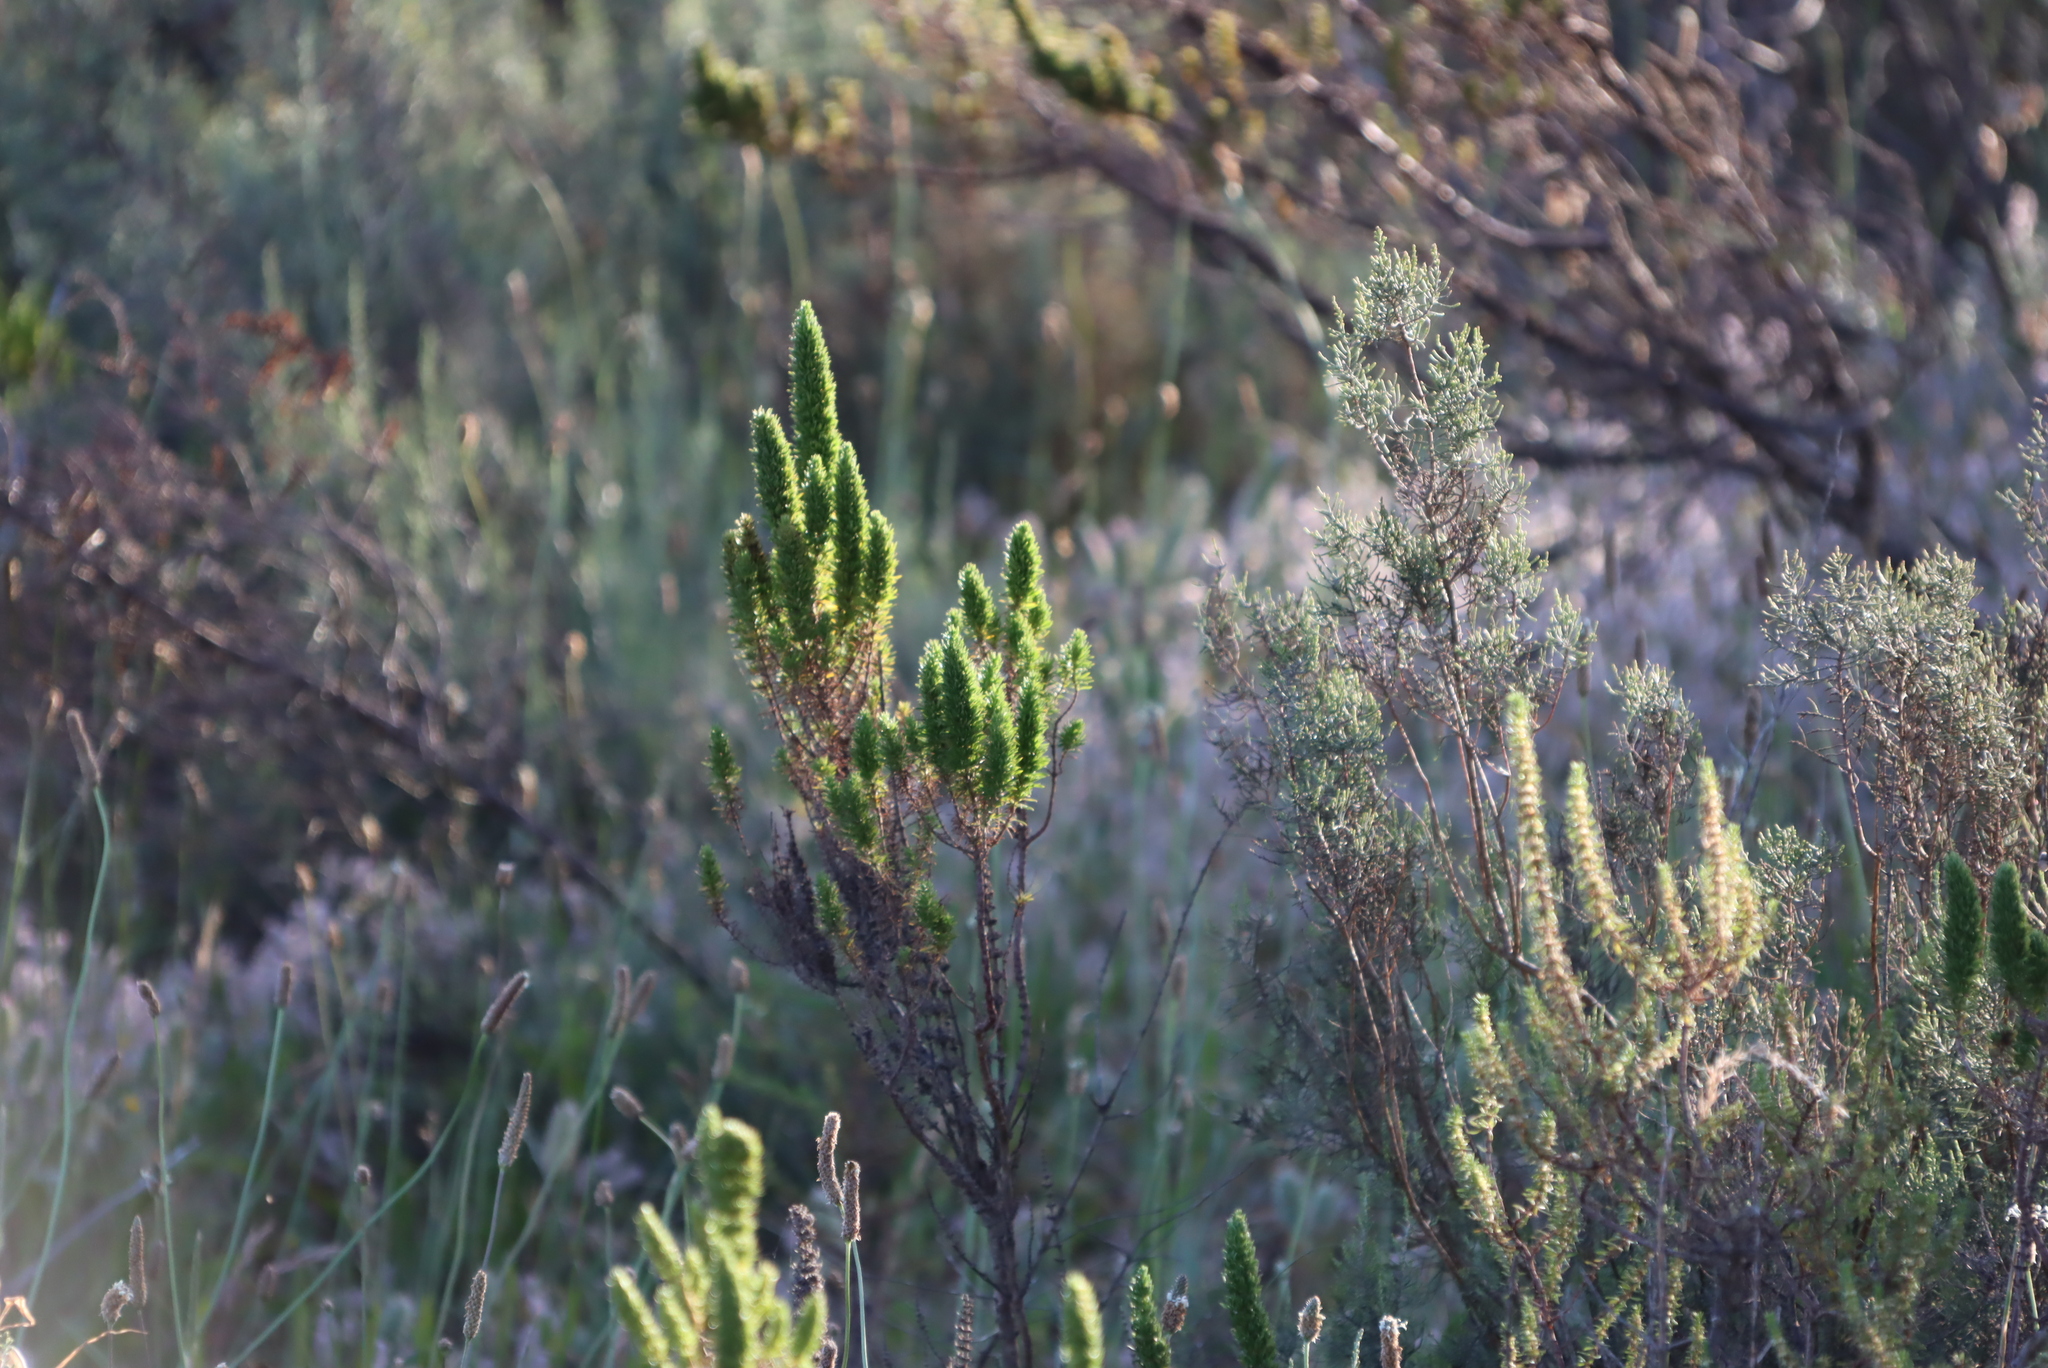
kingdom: Plantae
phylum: Tracheophyta
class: Magnoliopsida
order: Asterales
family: Asteraceae
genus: Dicerothamnus
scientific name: Dicerothamnus rhinocerotis
